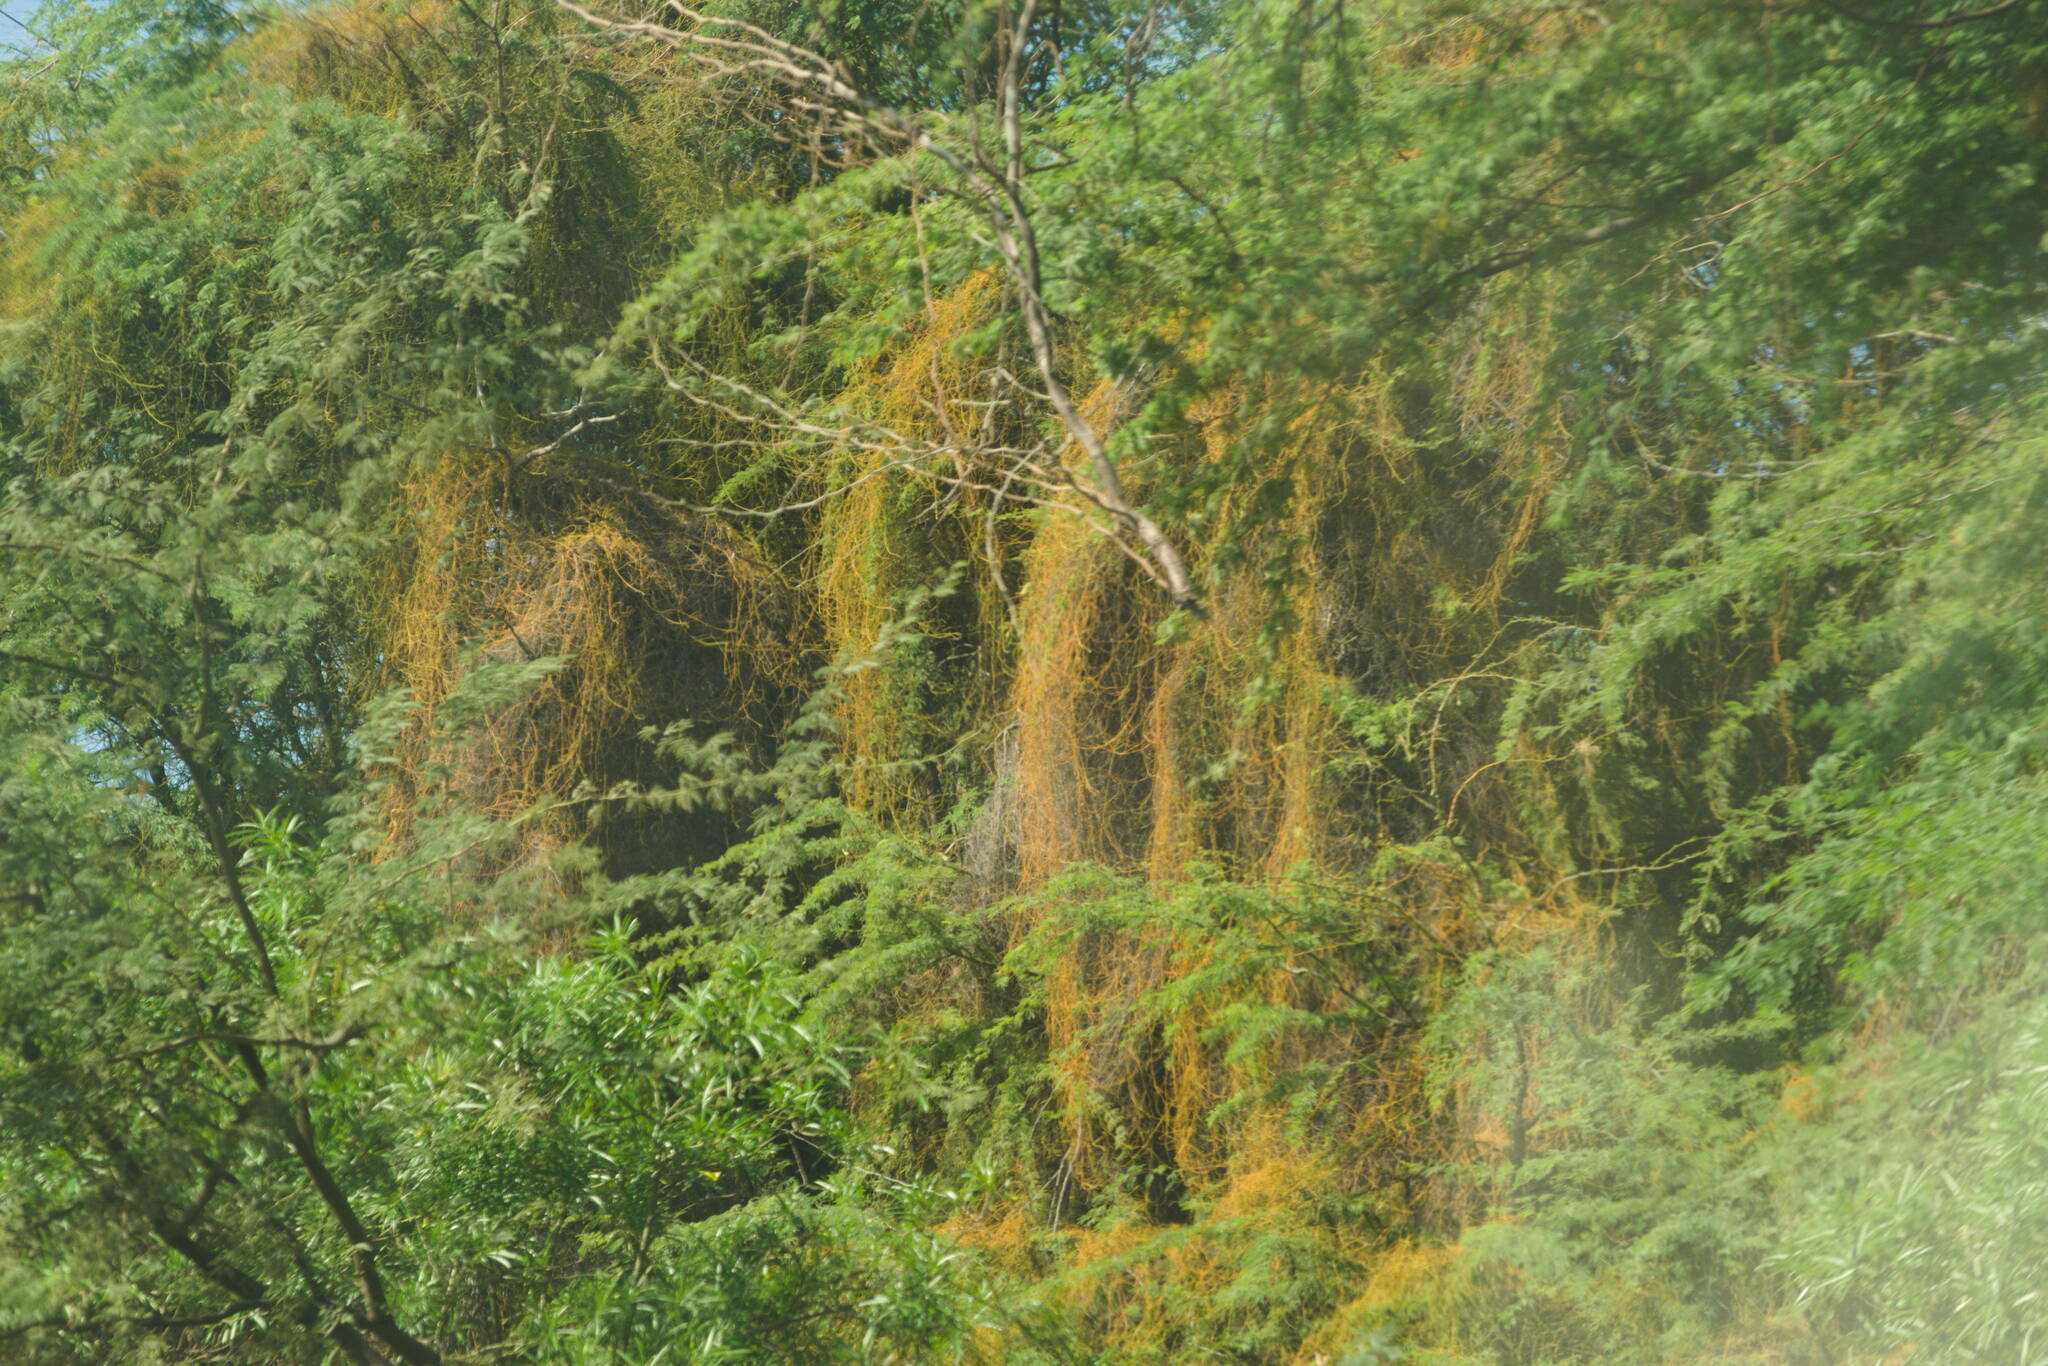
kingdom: Plantae
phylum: Tracheophyta
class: Magnoliopsida
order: Laurales
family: Lauraceae
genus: Cassytha
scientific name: Cassytha filiformis
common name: Dodder-laurel
